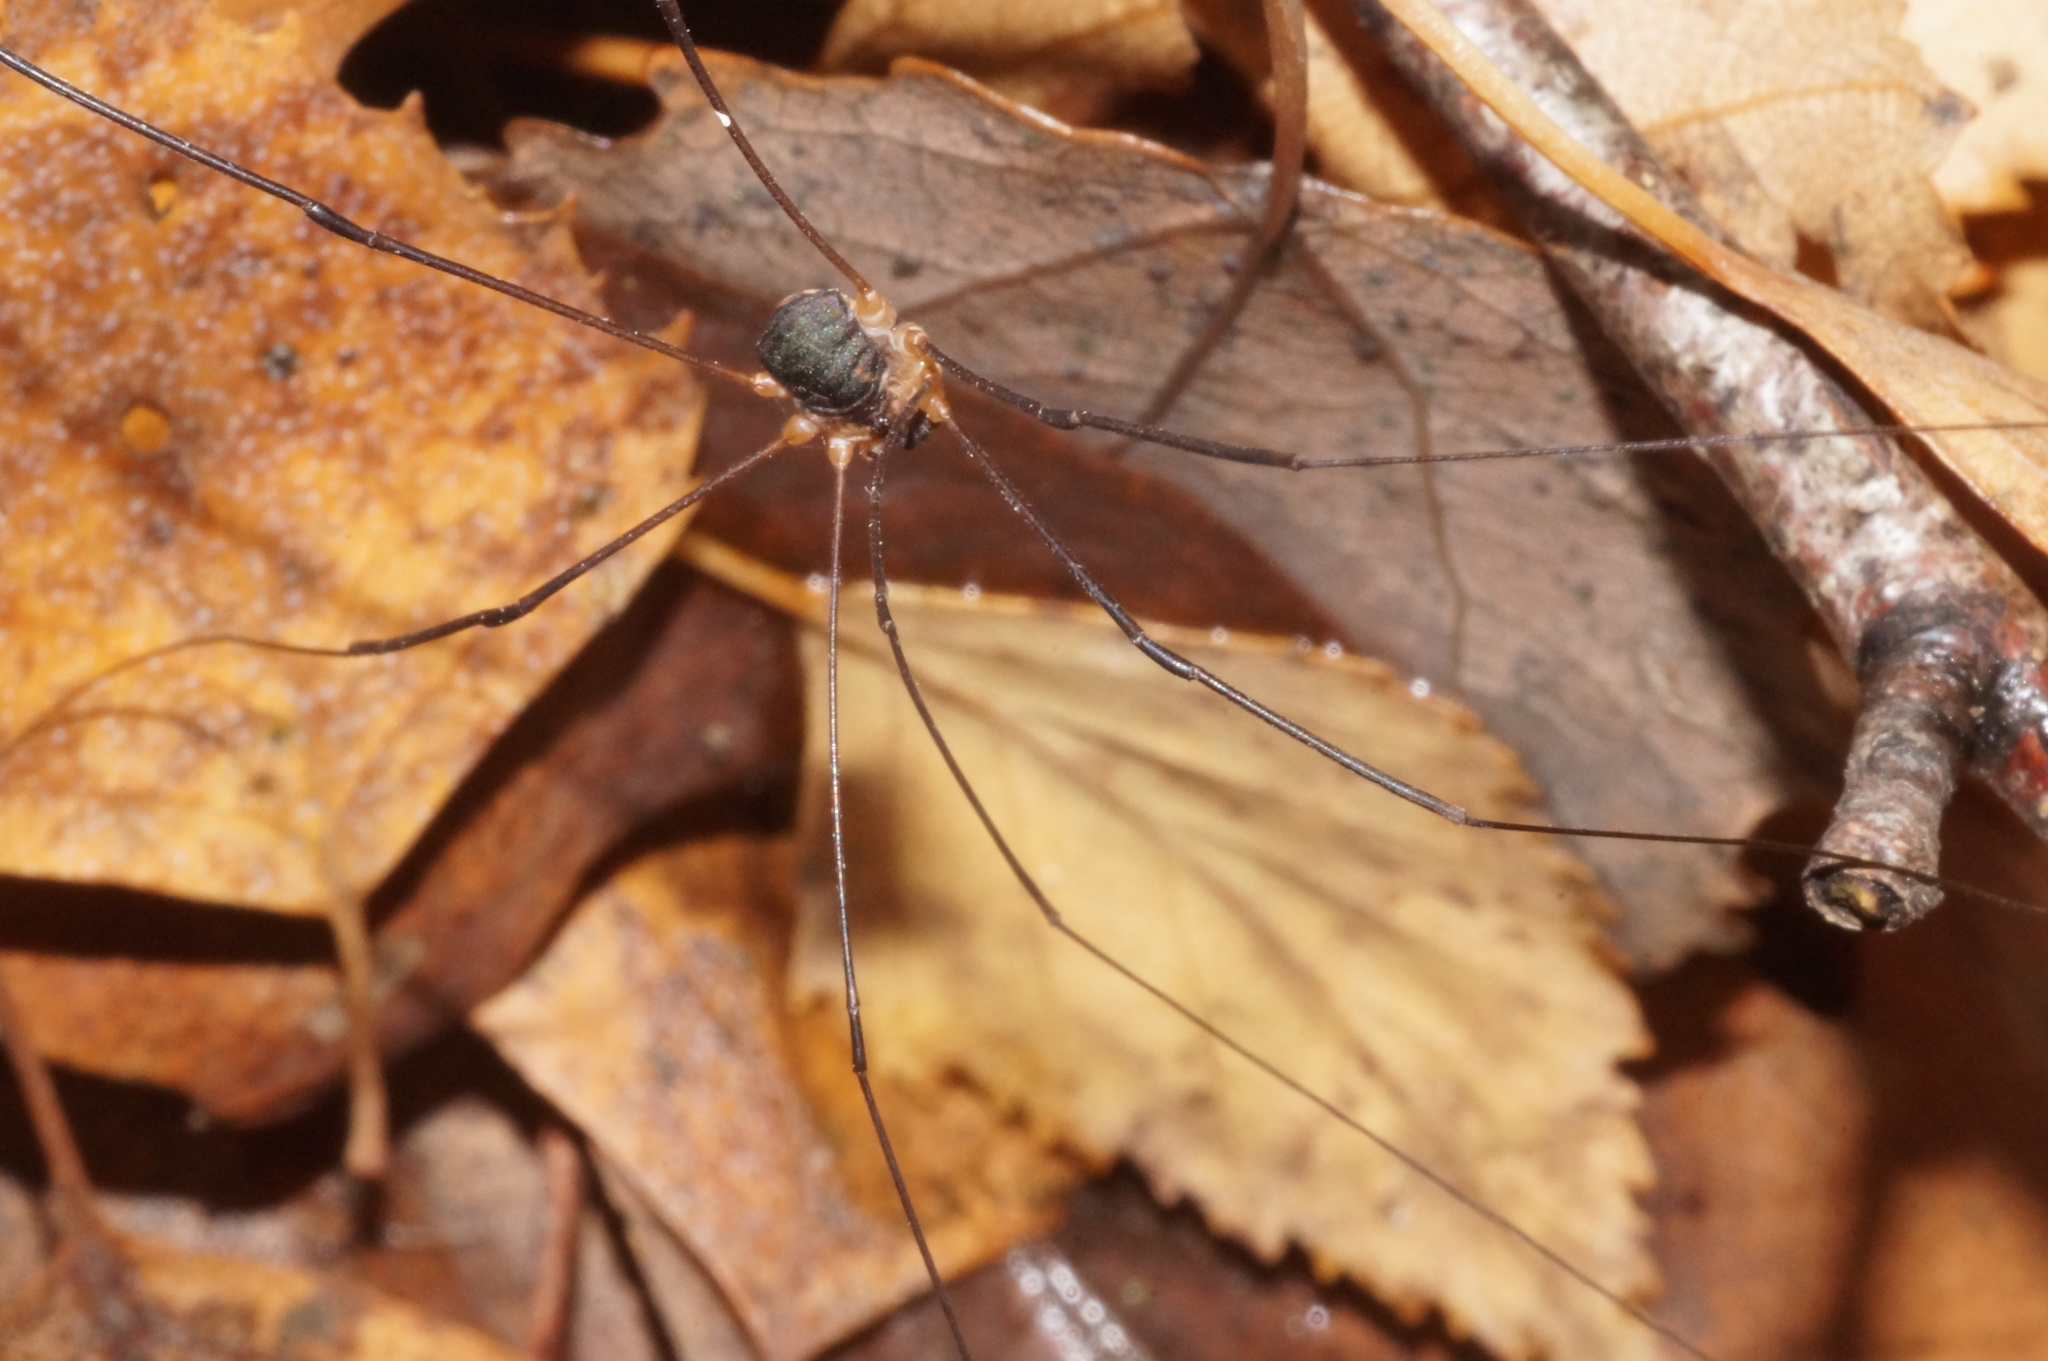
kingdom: Animalia
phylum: Arthropoda
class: Arachnida
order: Opiliones
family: Sclerosomatidae
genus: Leiobunum
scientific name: Leiobunum gracile
